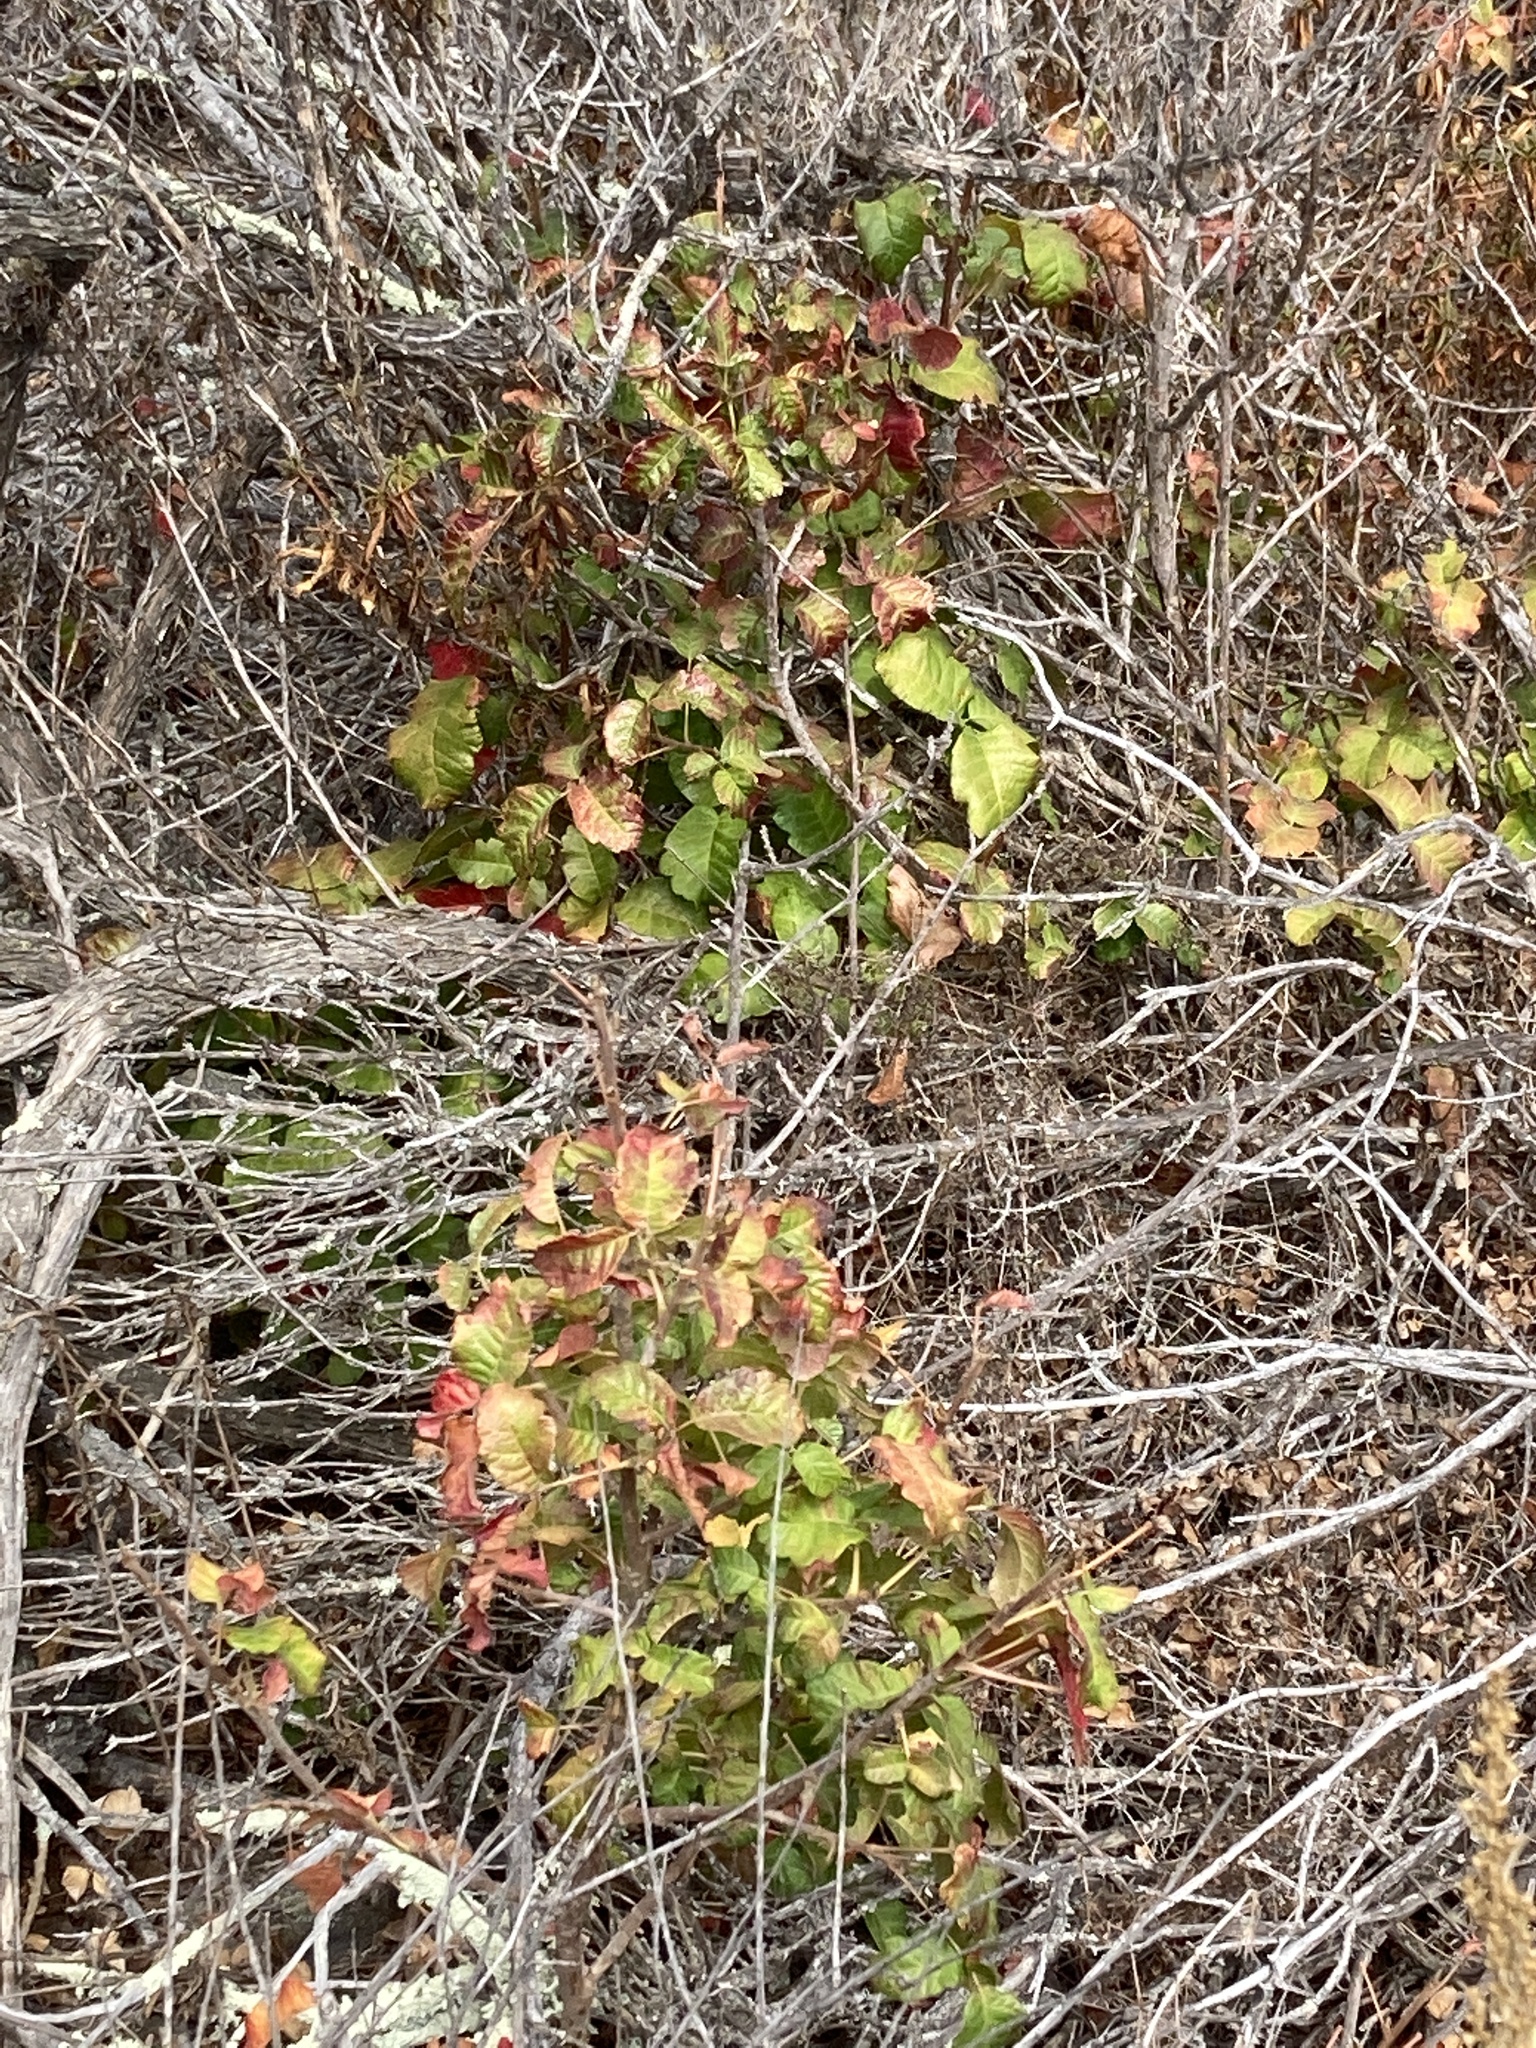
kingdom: Plantae
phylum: Tracheophyta
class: Magnoliopsida
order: Sapindales
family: Anacardiaceae
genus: Toxicodendron
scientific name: Toxicodendron diversilobum
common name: Pacific poison-oak
